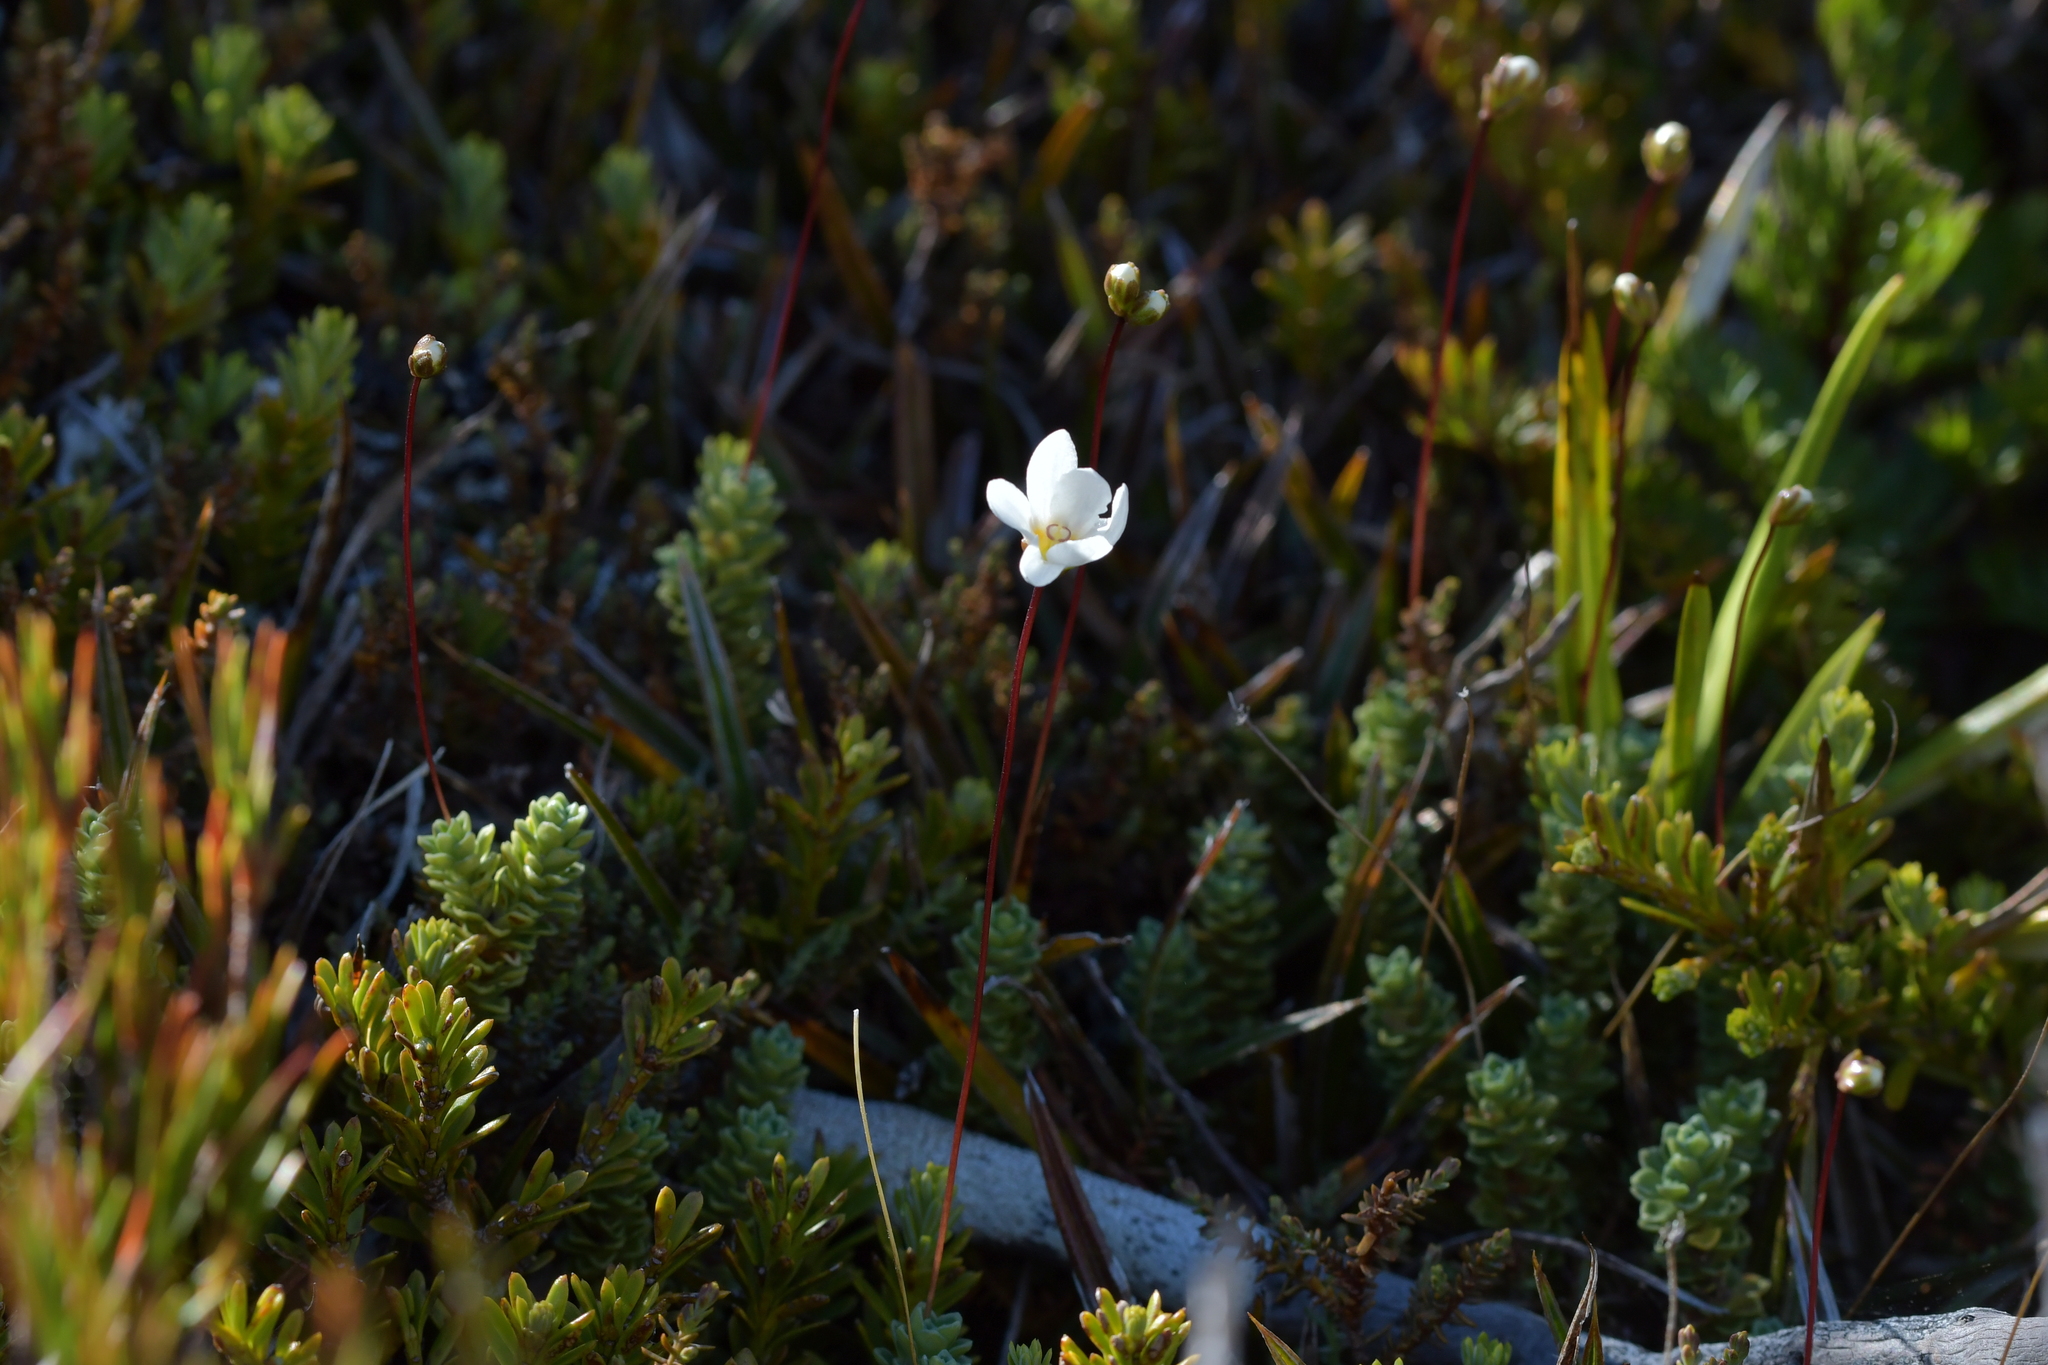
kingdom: Plantae
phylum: Tracheophyta
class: Magnoliopsida
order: Asterales
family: Stylidiaceae
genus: Forstera
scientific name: Forstera sedifolia
